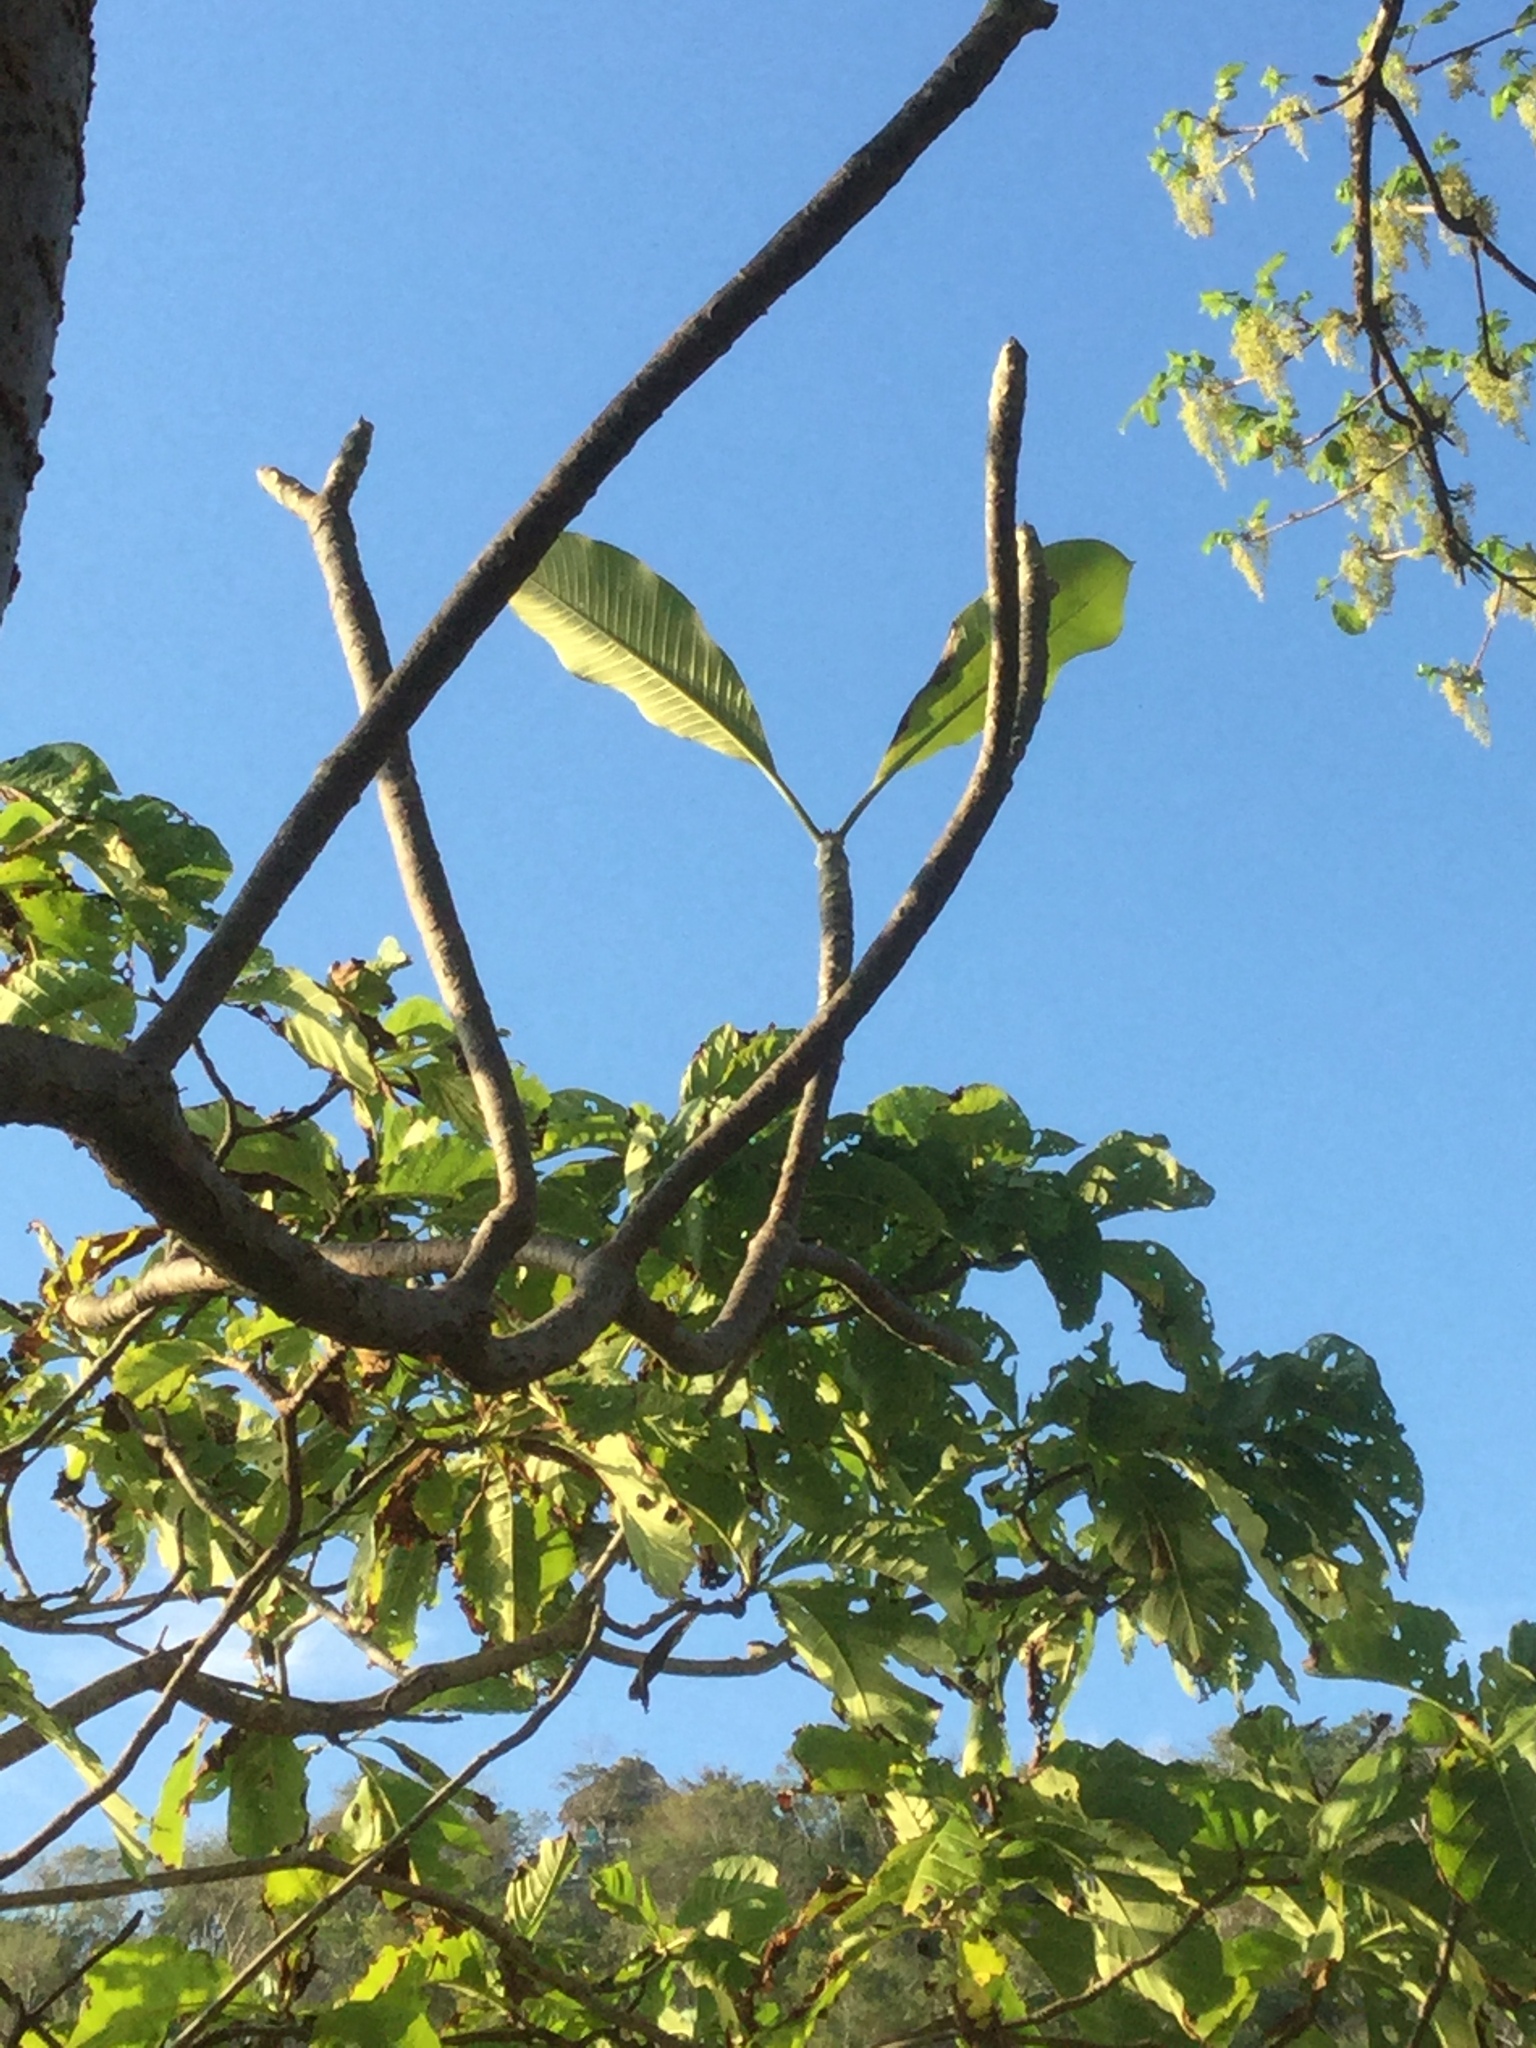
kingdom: Plantae
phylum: Tracheophyta
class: Magnoliopsida
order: Gentianales
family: Apocynaceae
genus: Plumeria
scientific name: Plumeria rubra
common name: Pagoda-tree
